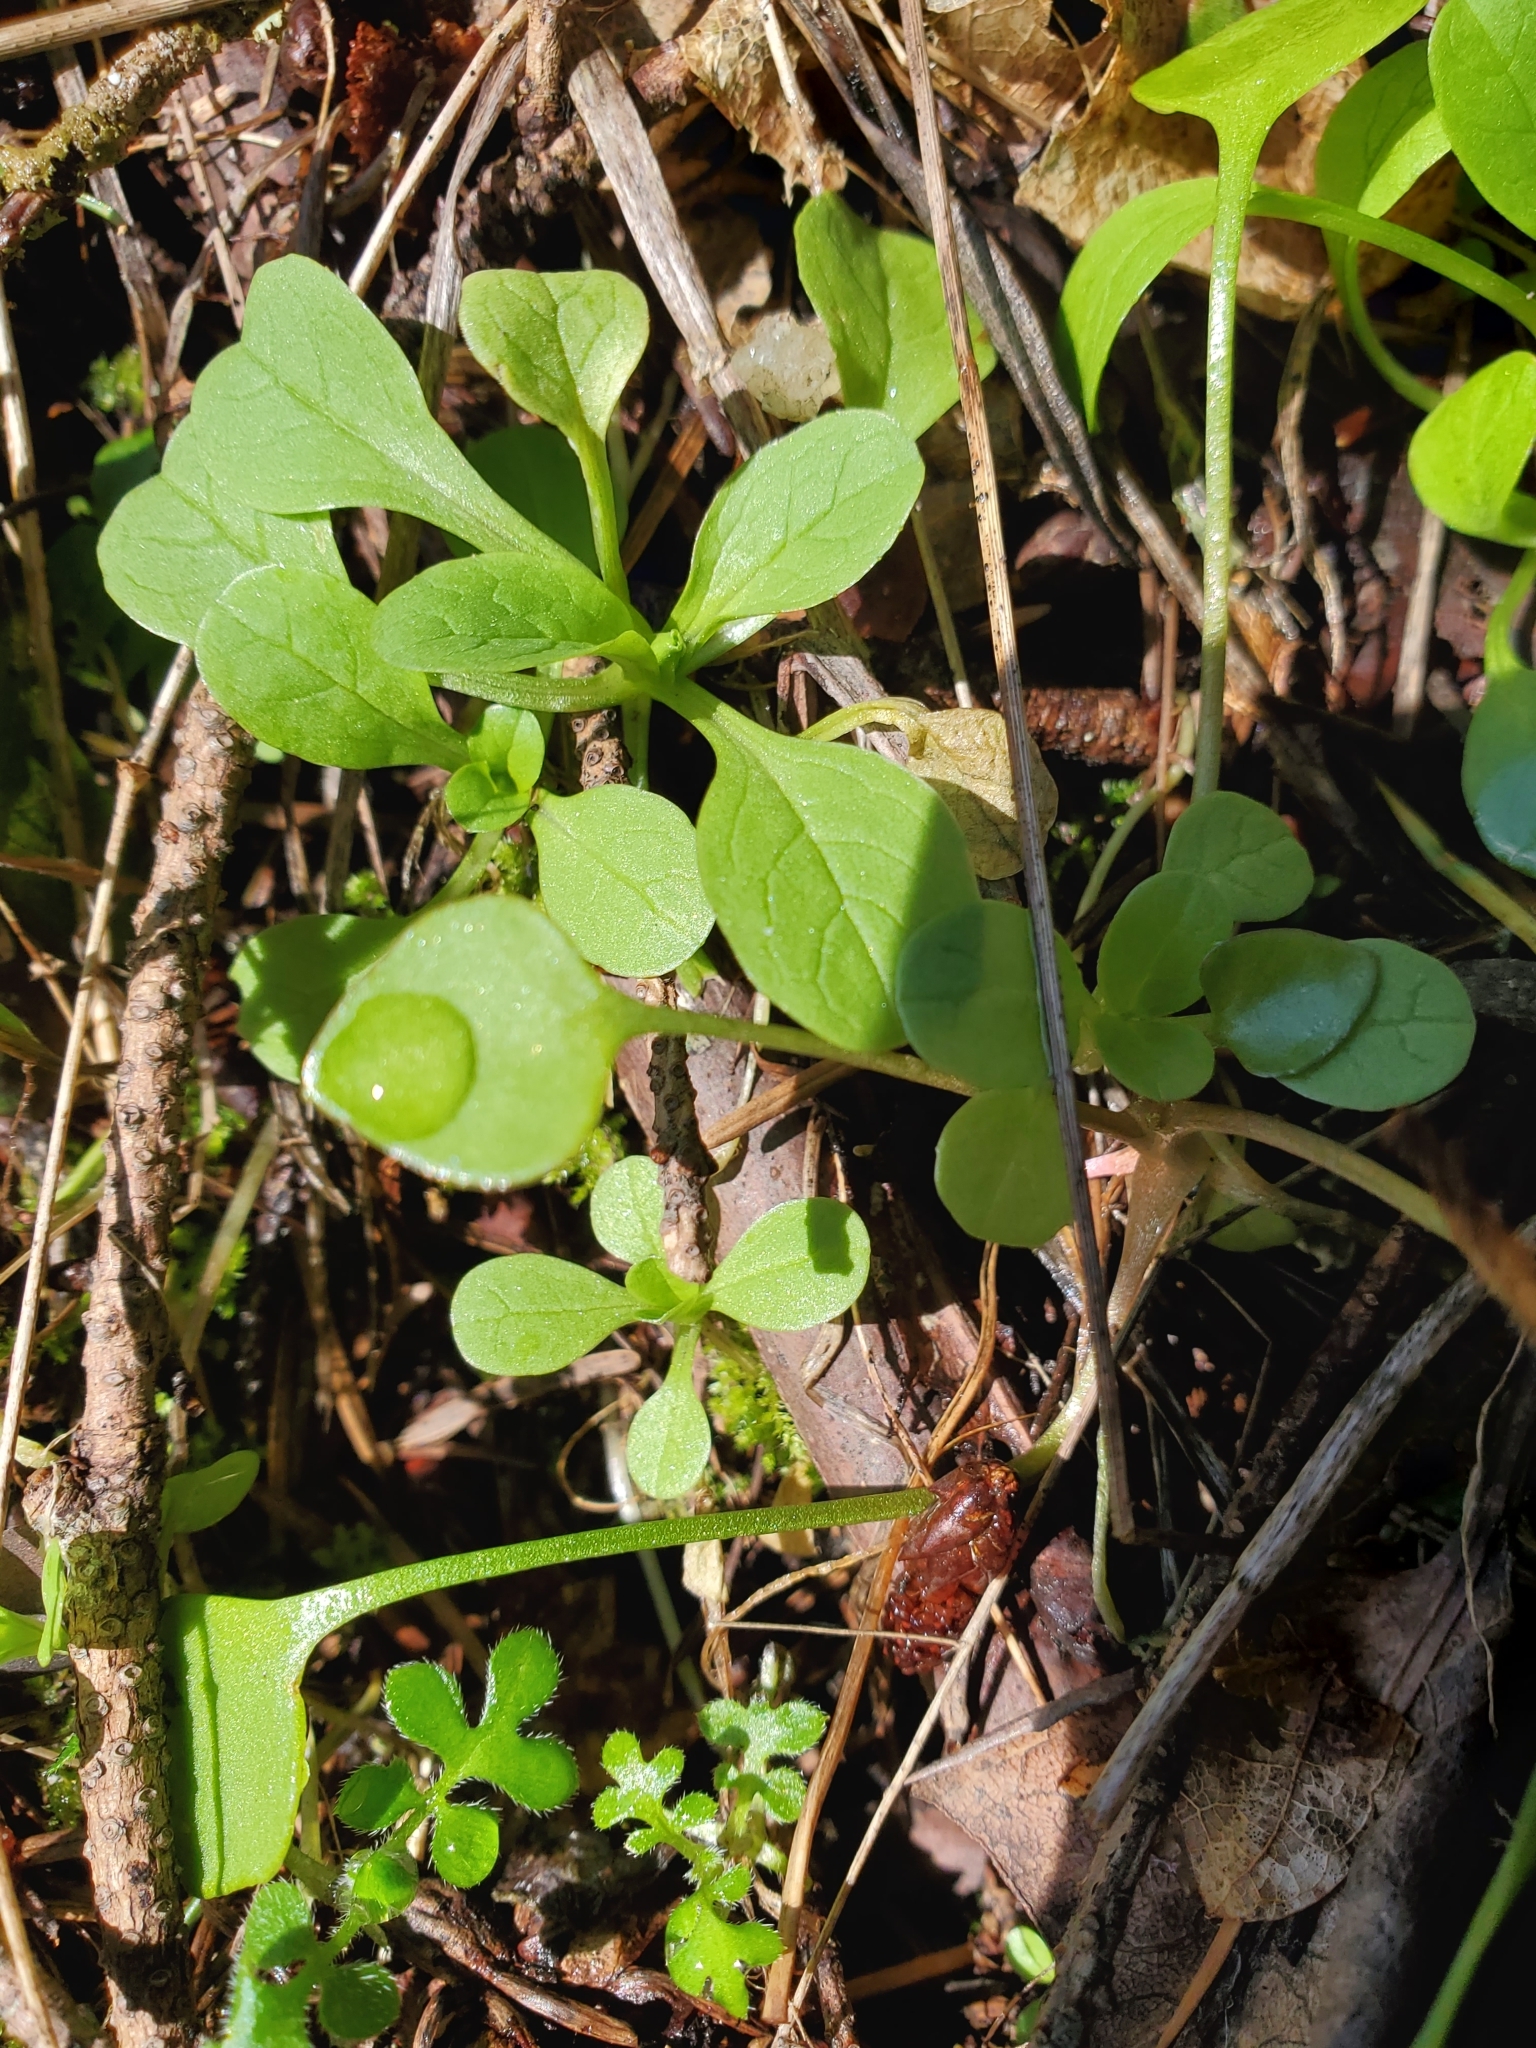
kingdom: Plantae
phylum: Tracheophyta
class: Magnoliopsida
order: Dipsacales
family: Caprifoliaceae
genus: Plectritis
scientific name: Plectritis congesta
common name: Pink plectritis
